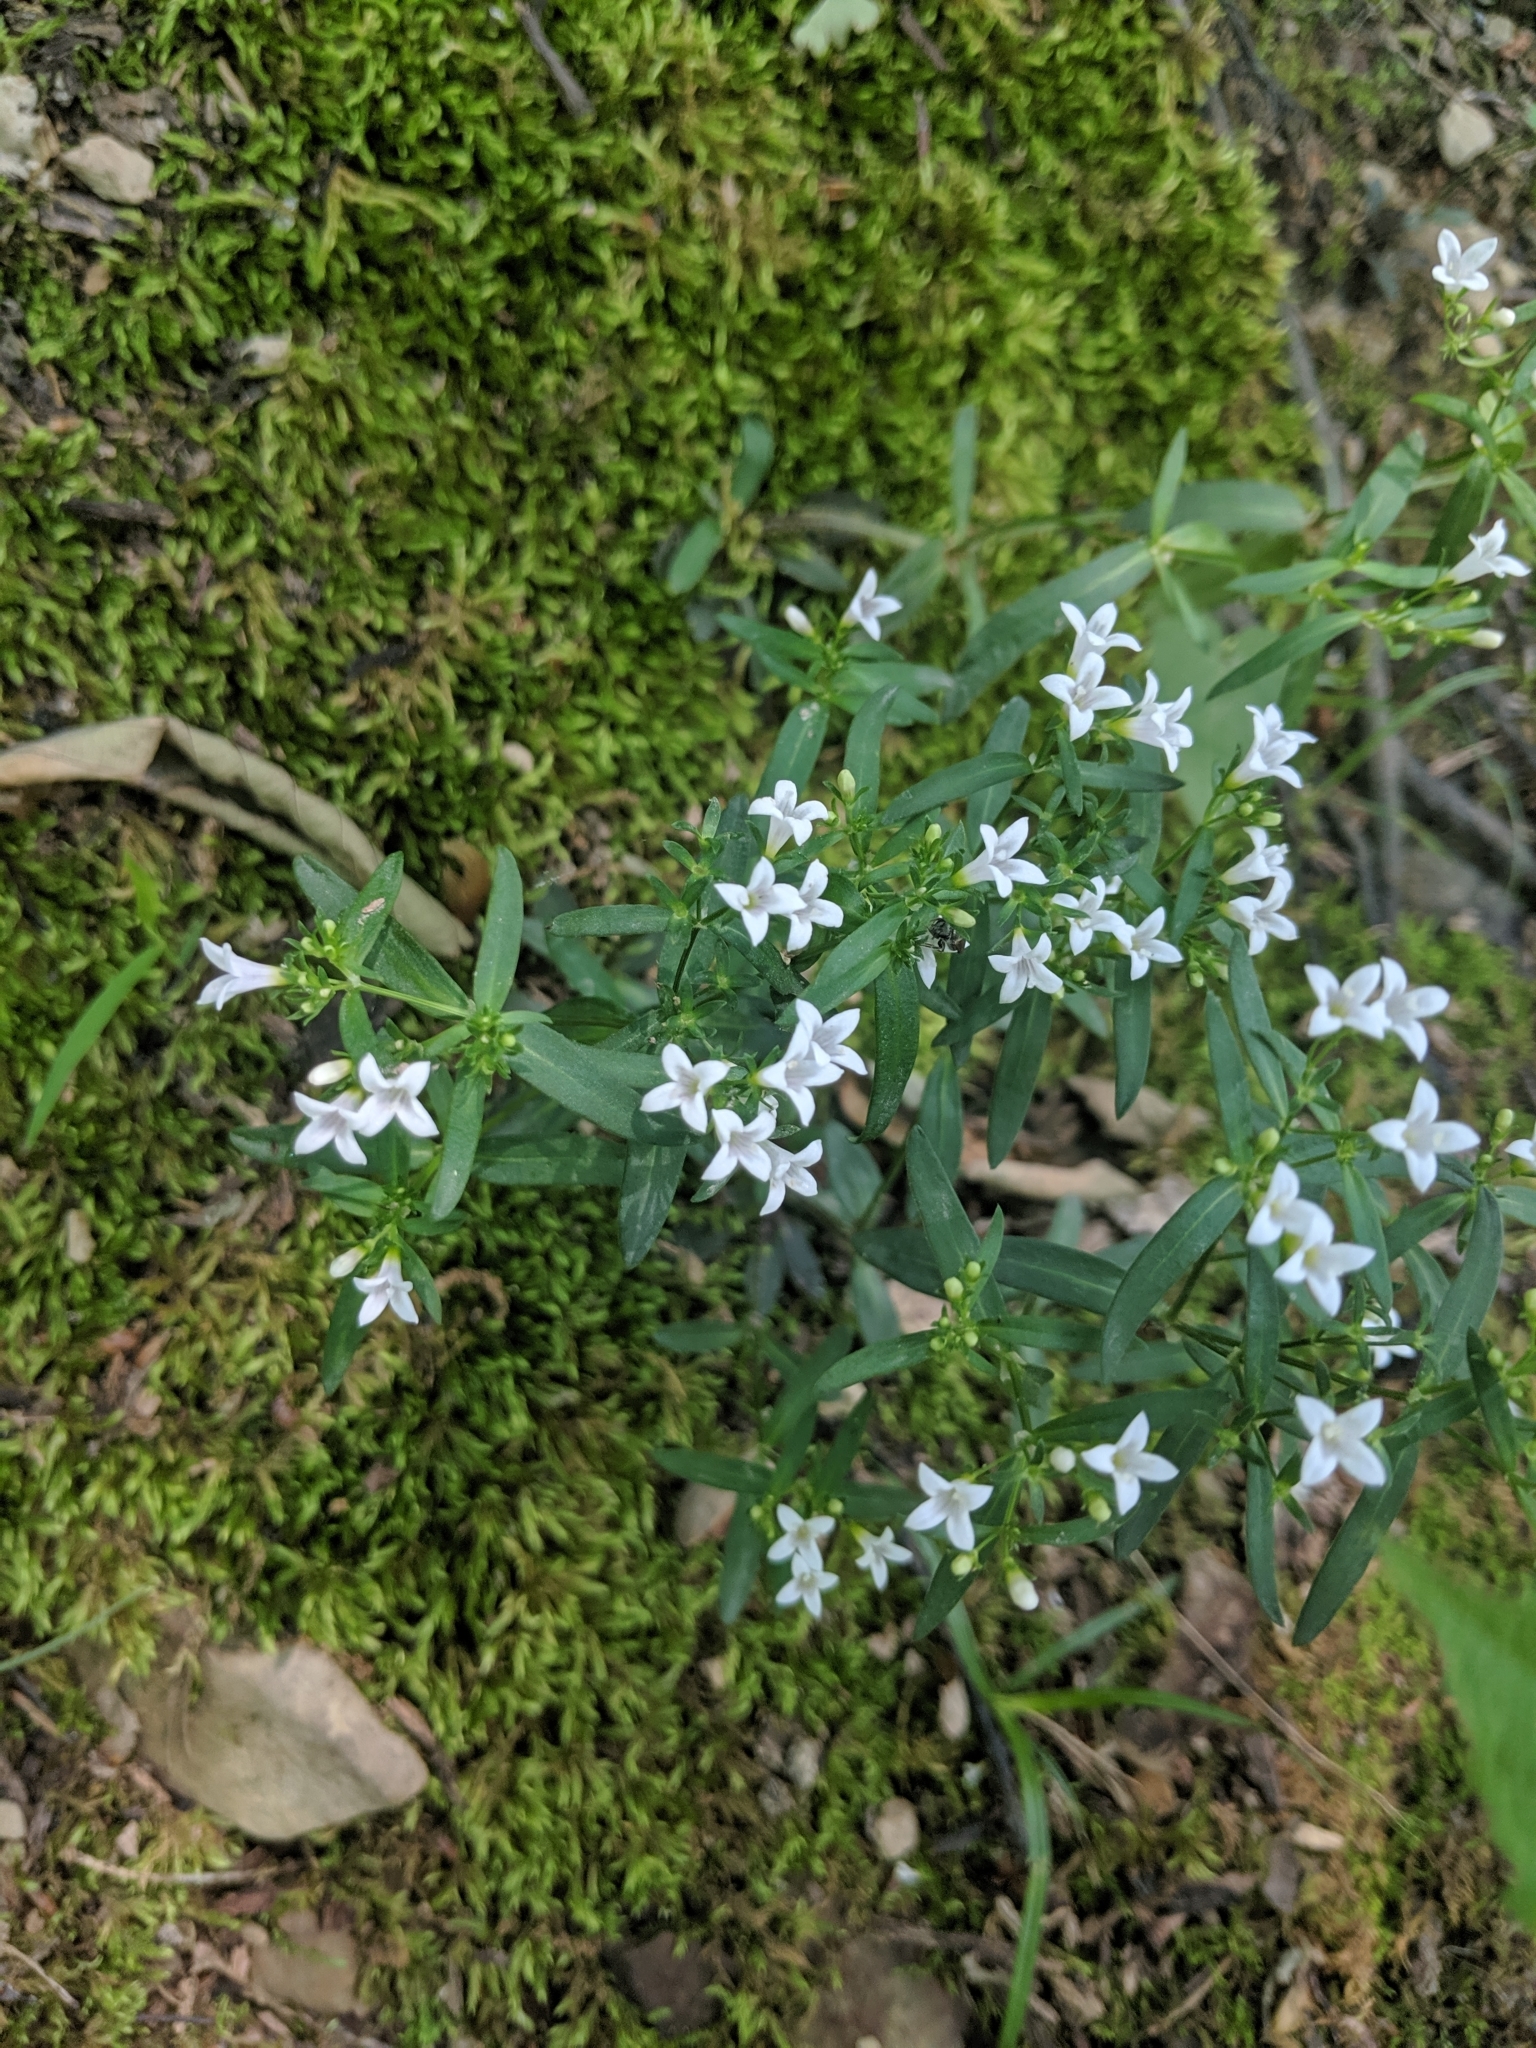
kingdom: Plantae
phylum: Tracheophyta
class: Magnoliopsida
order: Gentianales
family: Rubiaceae
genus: Houstonia
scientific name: Houstonia longifolia
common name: Long-leaved bluets
